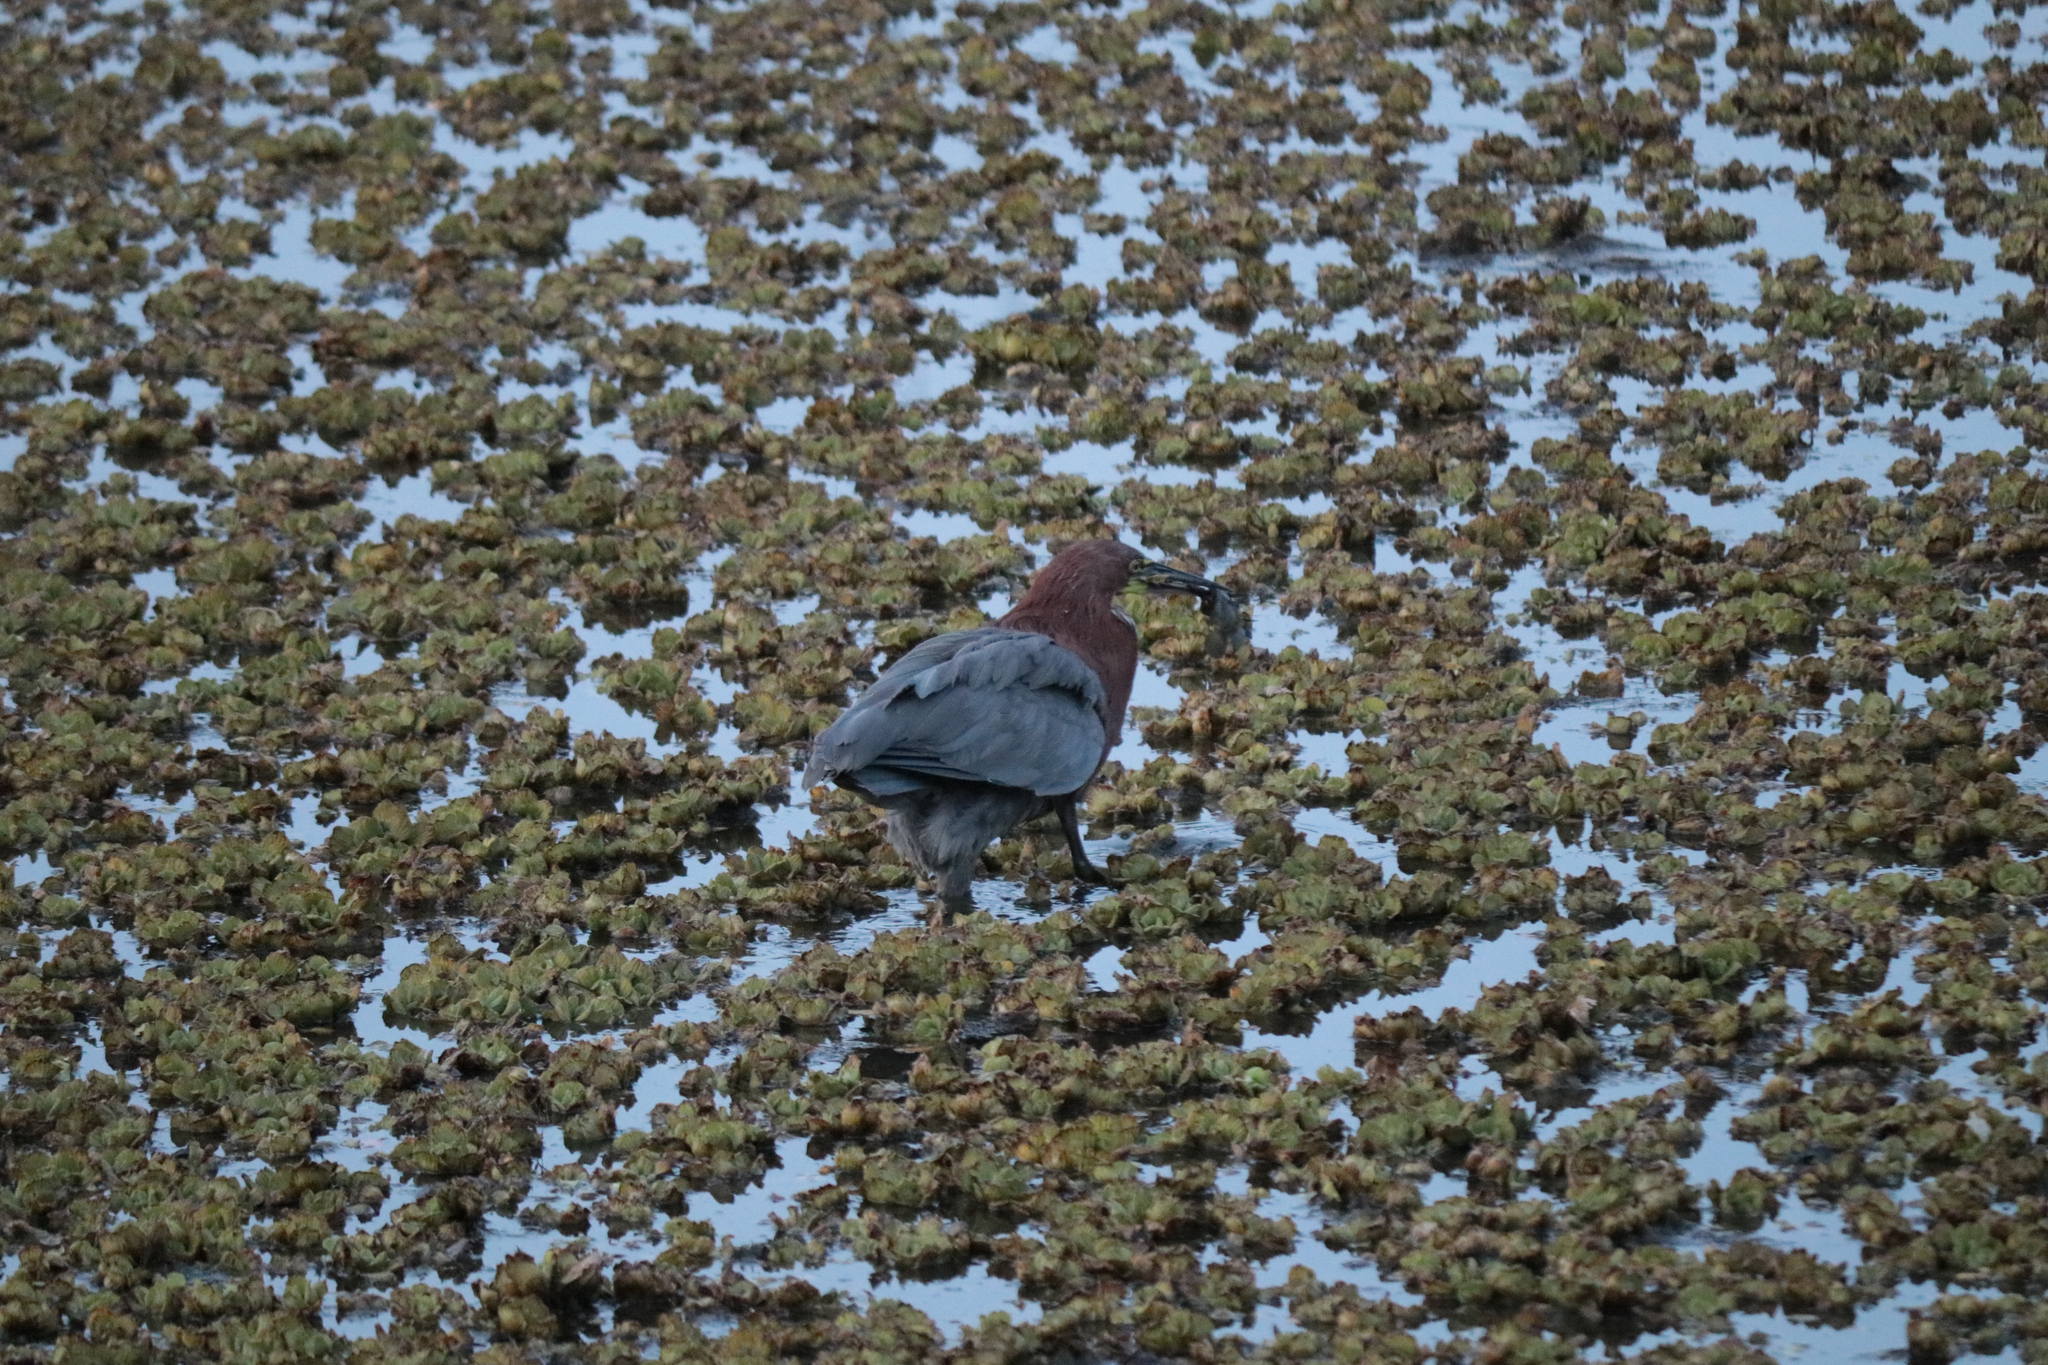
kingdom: Animalia
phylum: Chordata
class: Aves
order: Pelecaniformes
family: Ardeidae
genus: Tigrisoma
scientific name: Tigrisoma lineatum
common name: Rufescent tiger-heron
